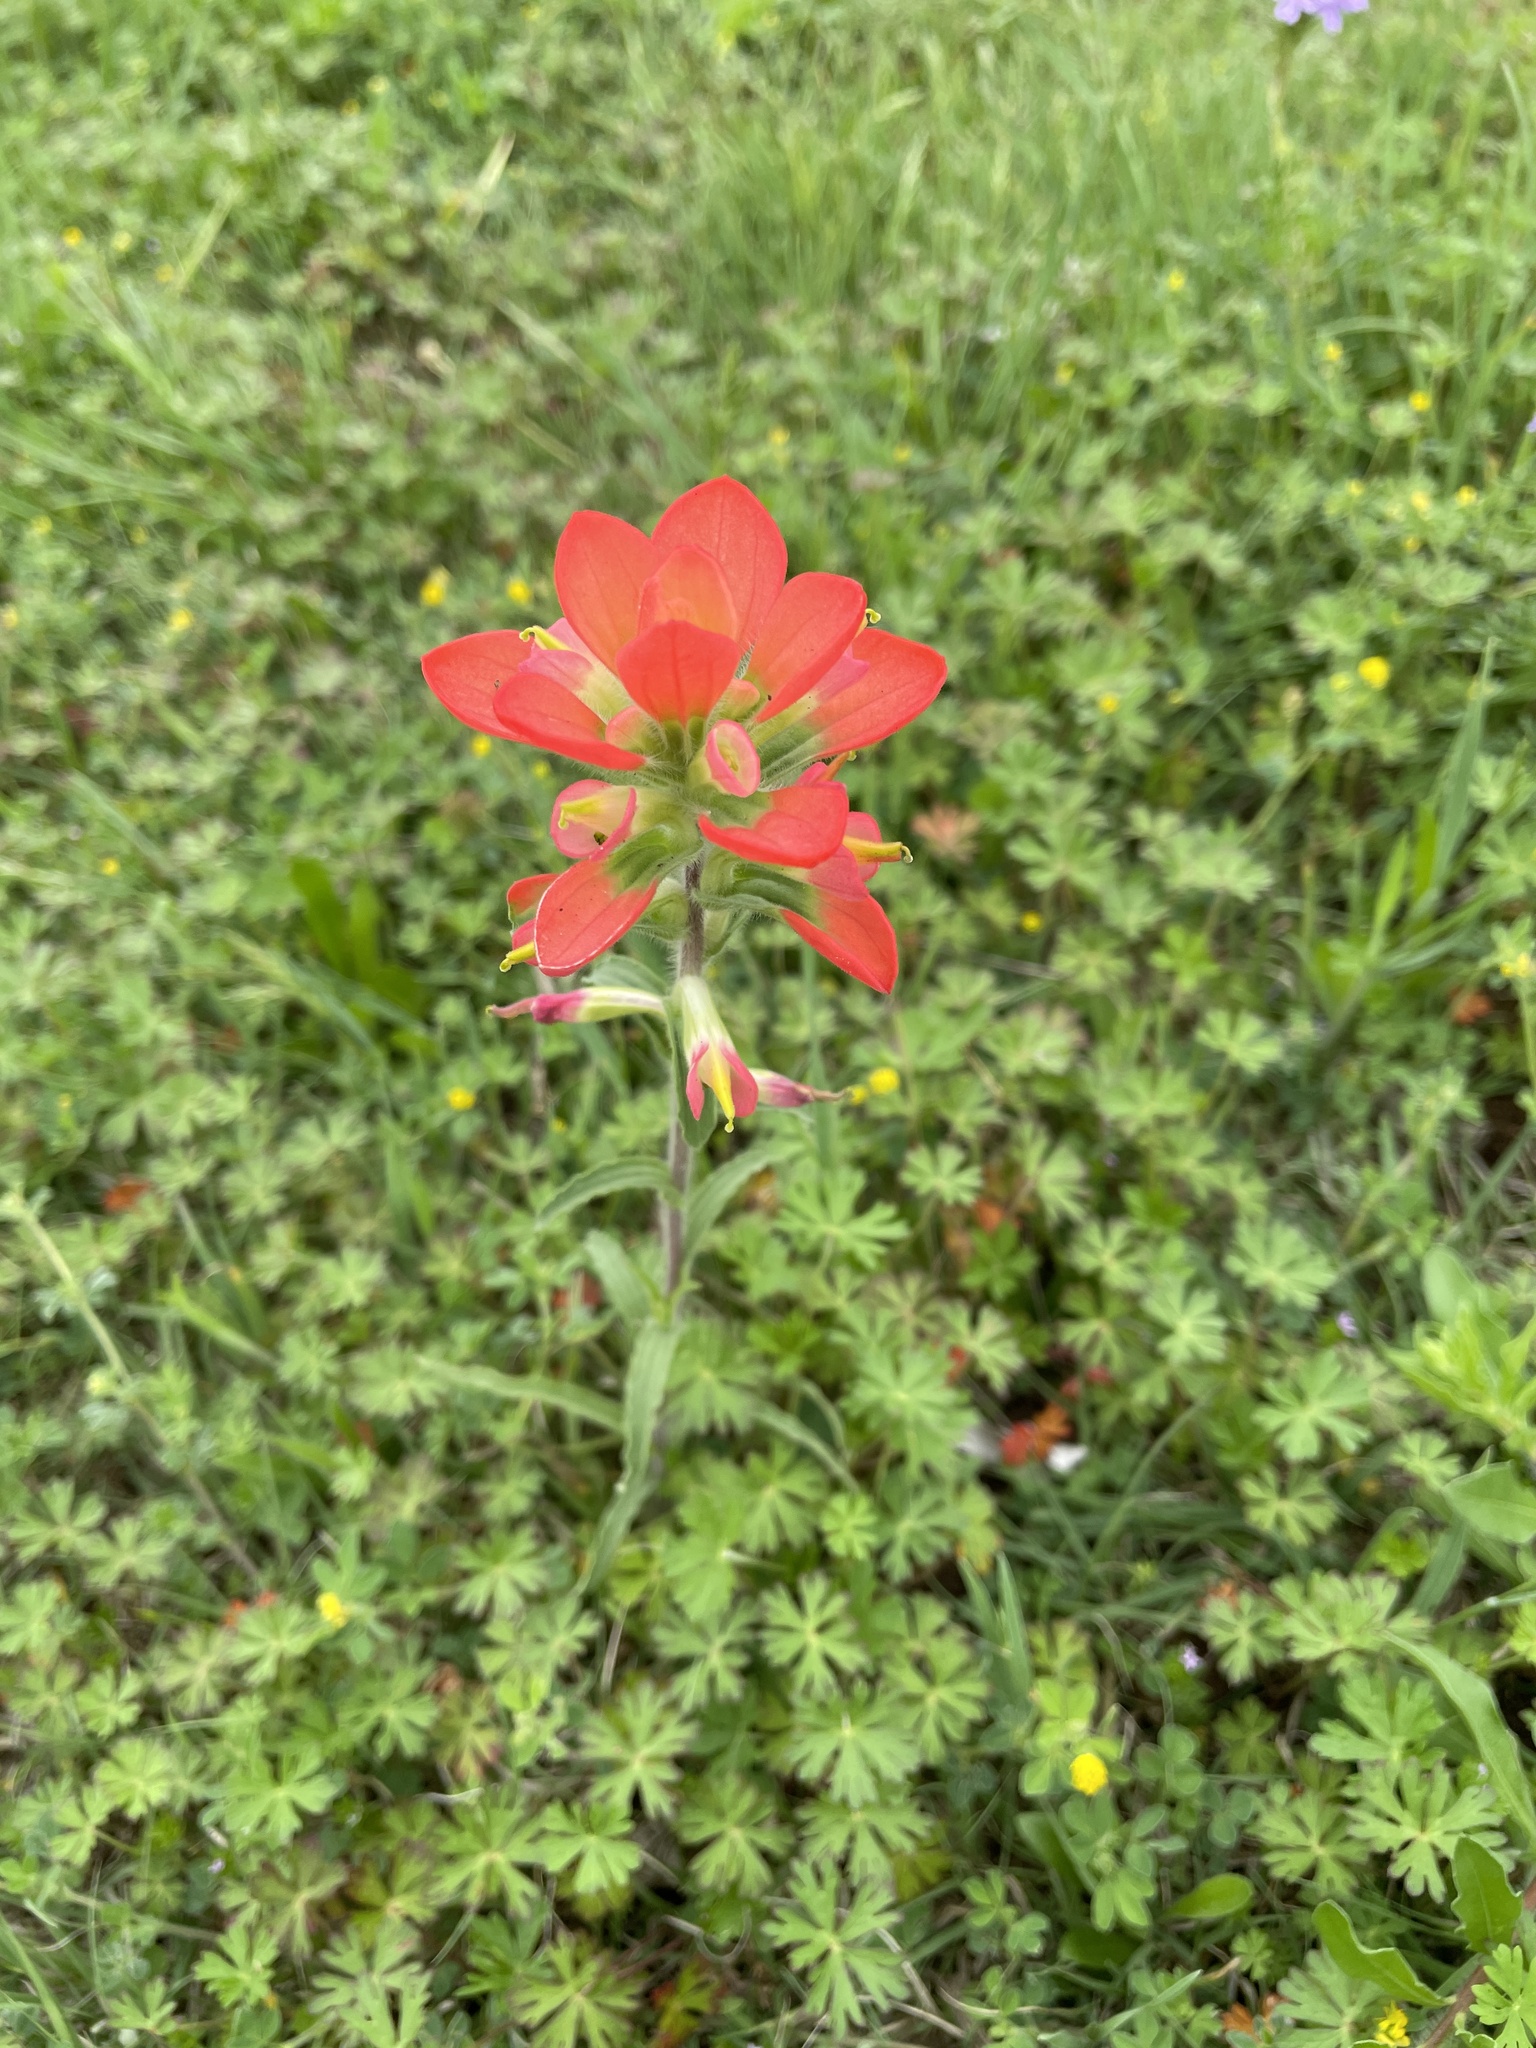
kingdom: Plantae
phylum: Tracheophyta
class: Magnoliopsida
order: Lamiales
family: Orobanchaceae
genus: Castilleja
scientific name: Castilleja indivisa
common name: Texas paintbrush
